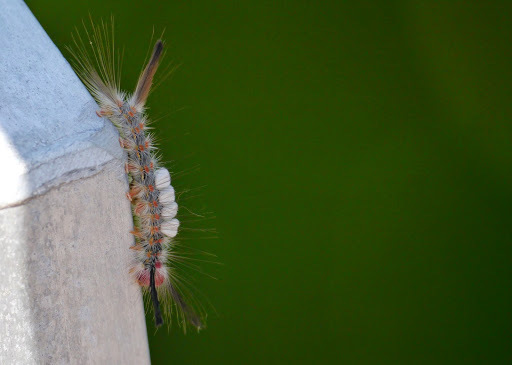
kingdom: Animalia
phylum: Arthropoda
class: Insecta
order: Lepidoptera
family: Erebidae
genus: Orgyia
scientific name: Orgyia detrita
